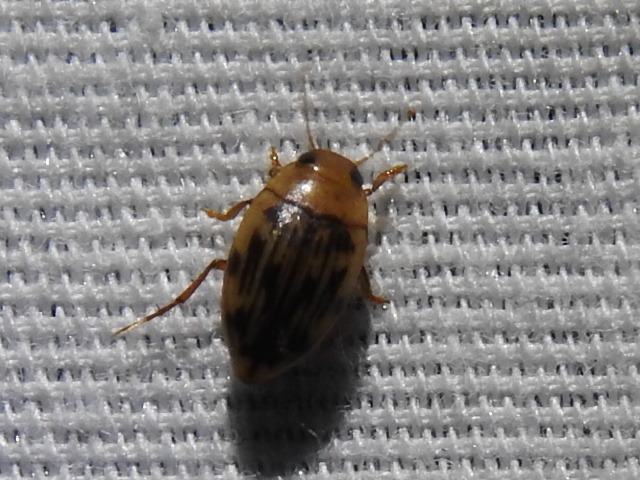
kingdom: Animalia
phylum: Arthropoda
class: Insecta
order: Coleoptera
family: Dytiscidae
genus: Neoporus
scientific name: Neoporus dimidiatus
